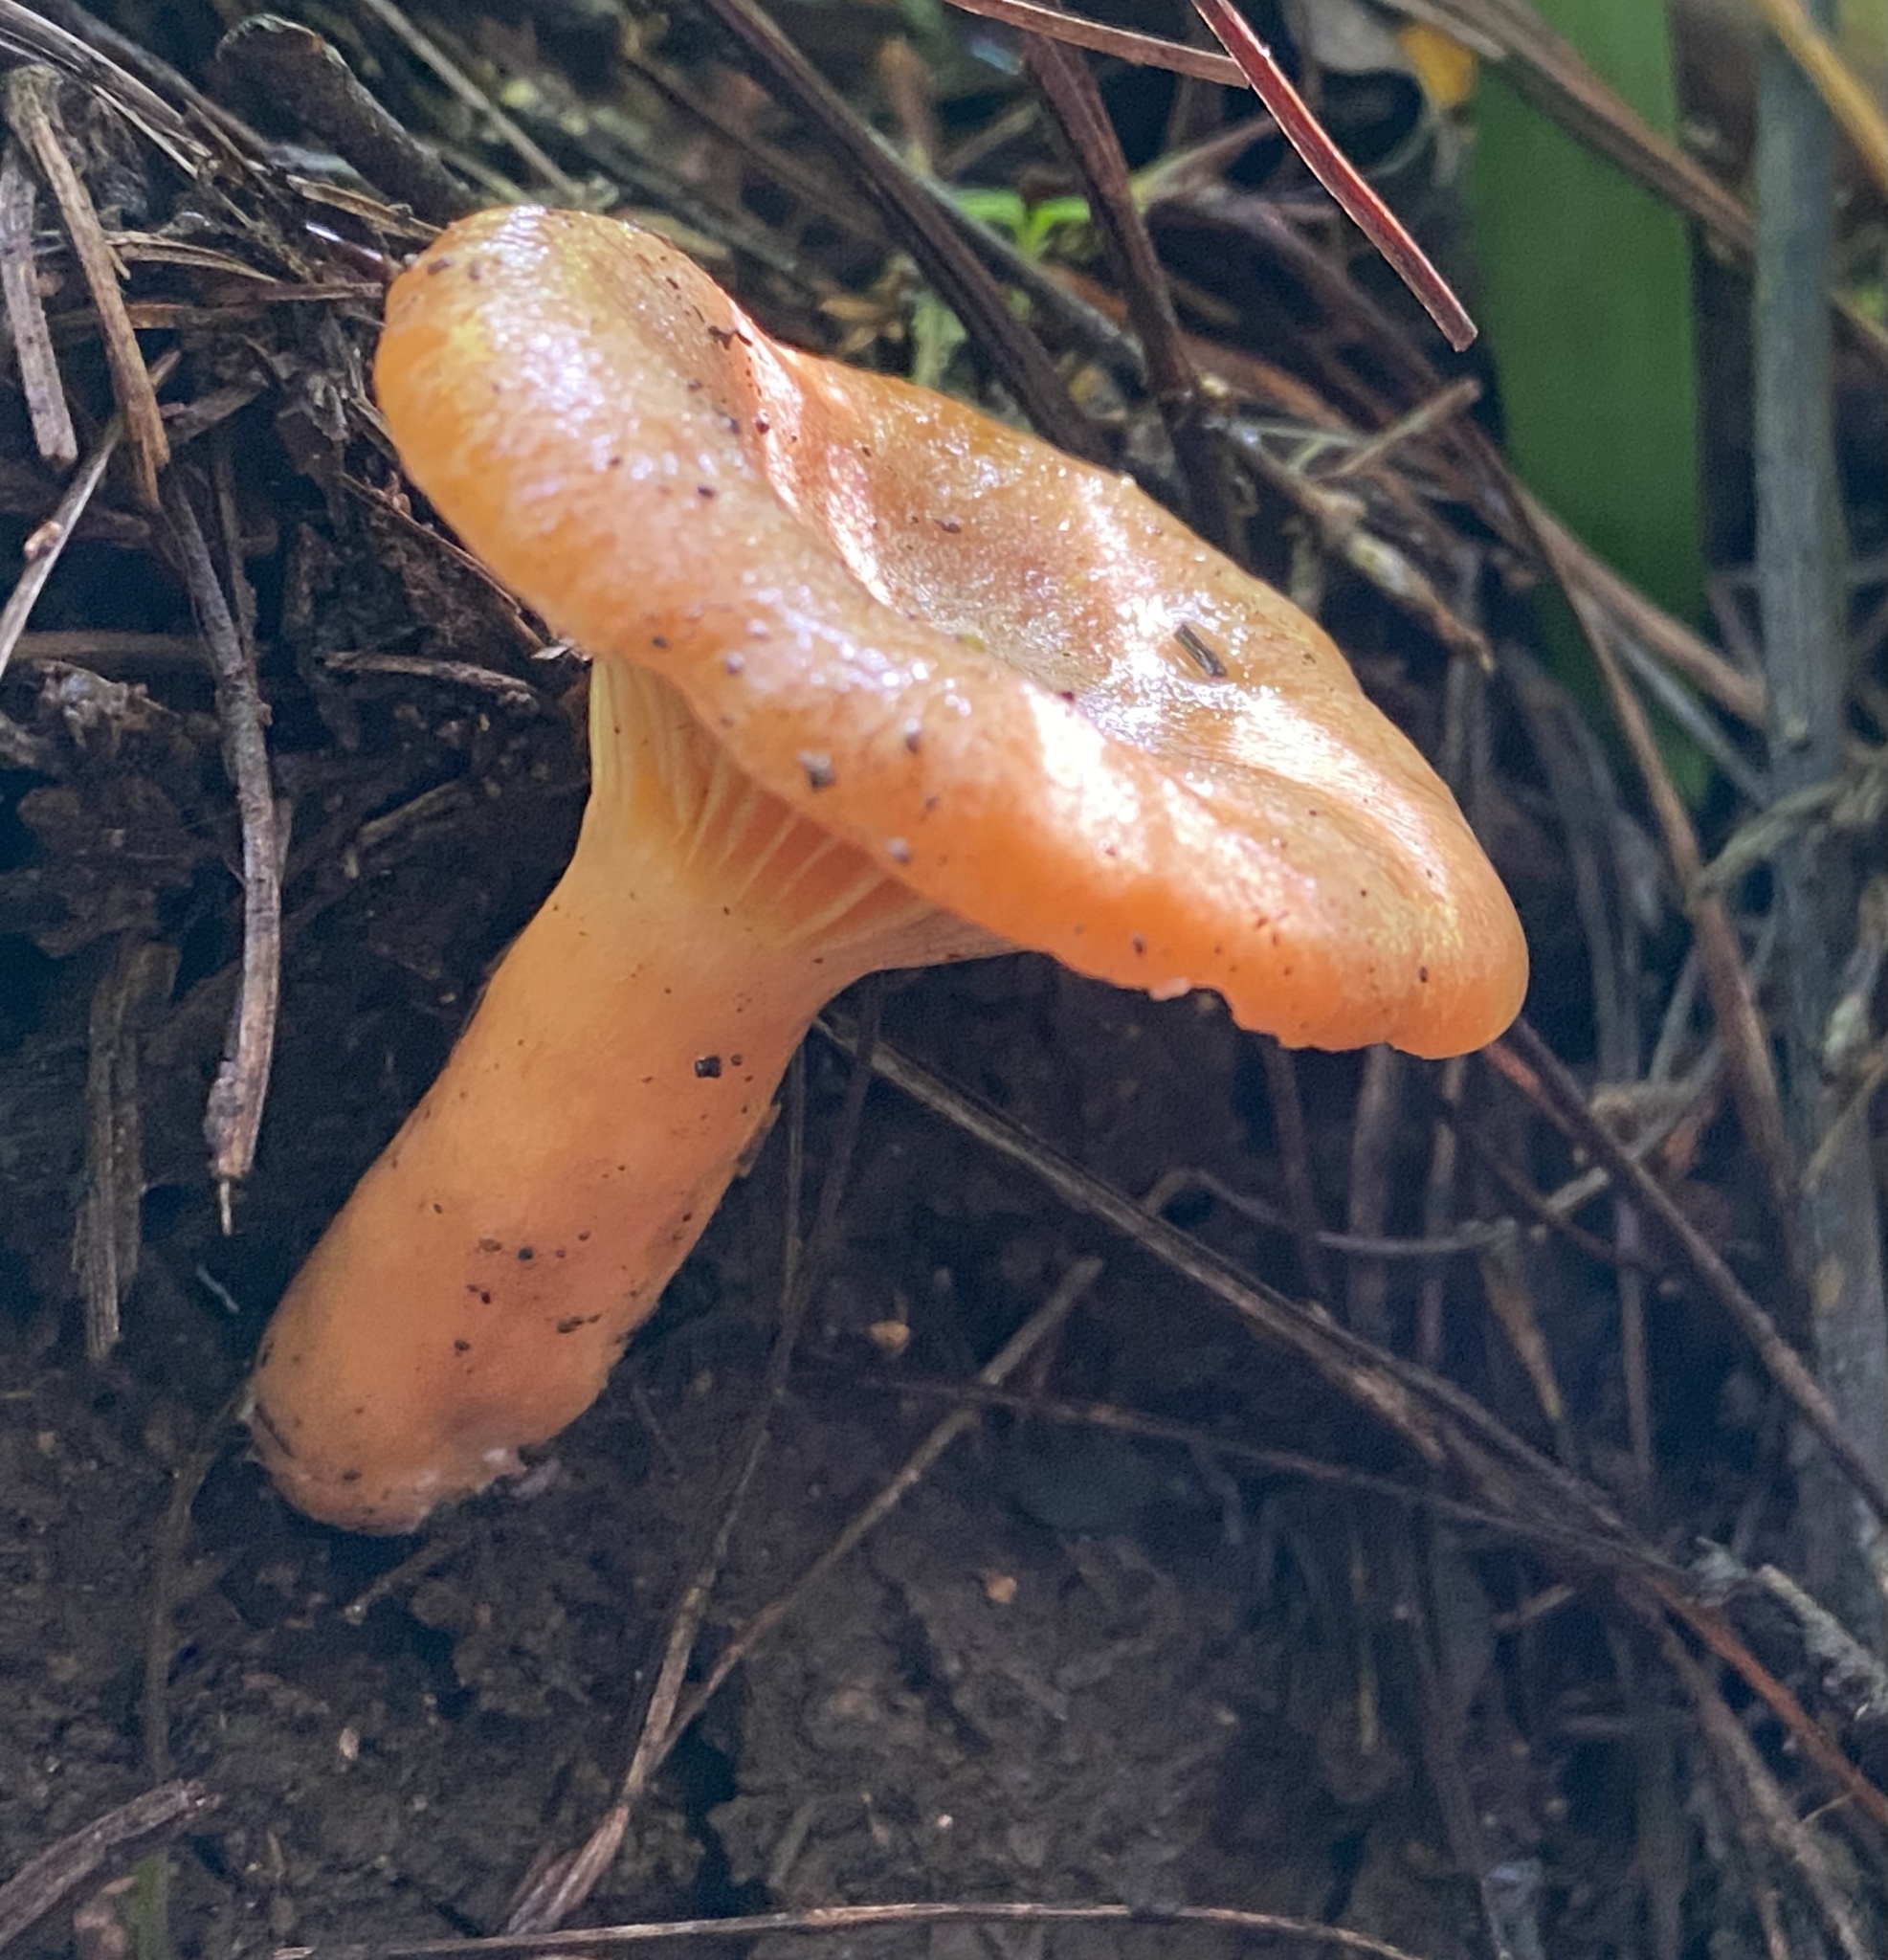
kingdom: Fungi
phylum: Basidiomycota
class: Agaricomycetes
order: Russulales
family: Russulaceae
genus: Lactarius
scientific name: Lactarius deliciosus
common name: Saffron milk-cap
